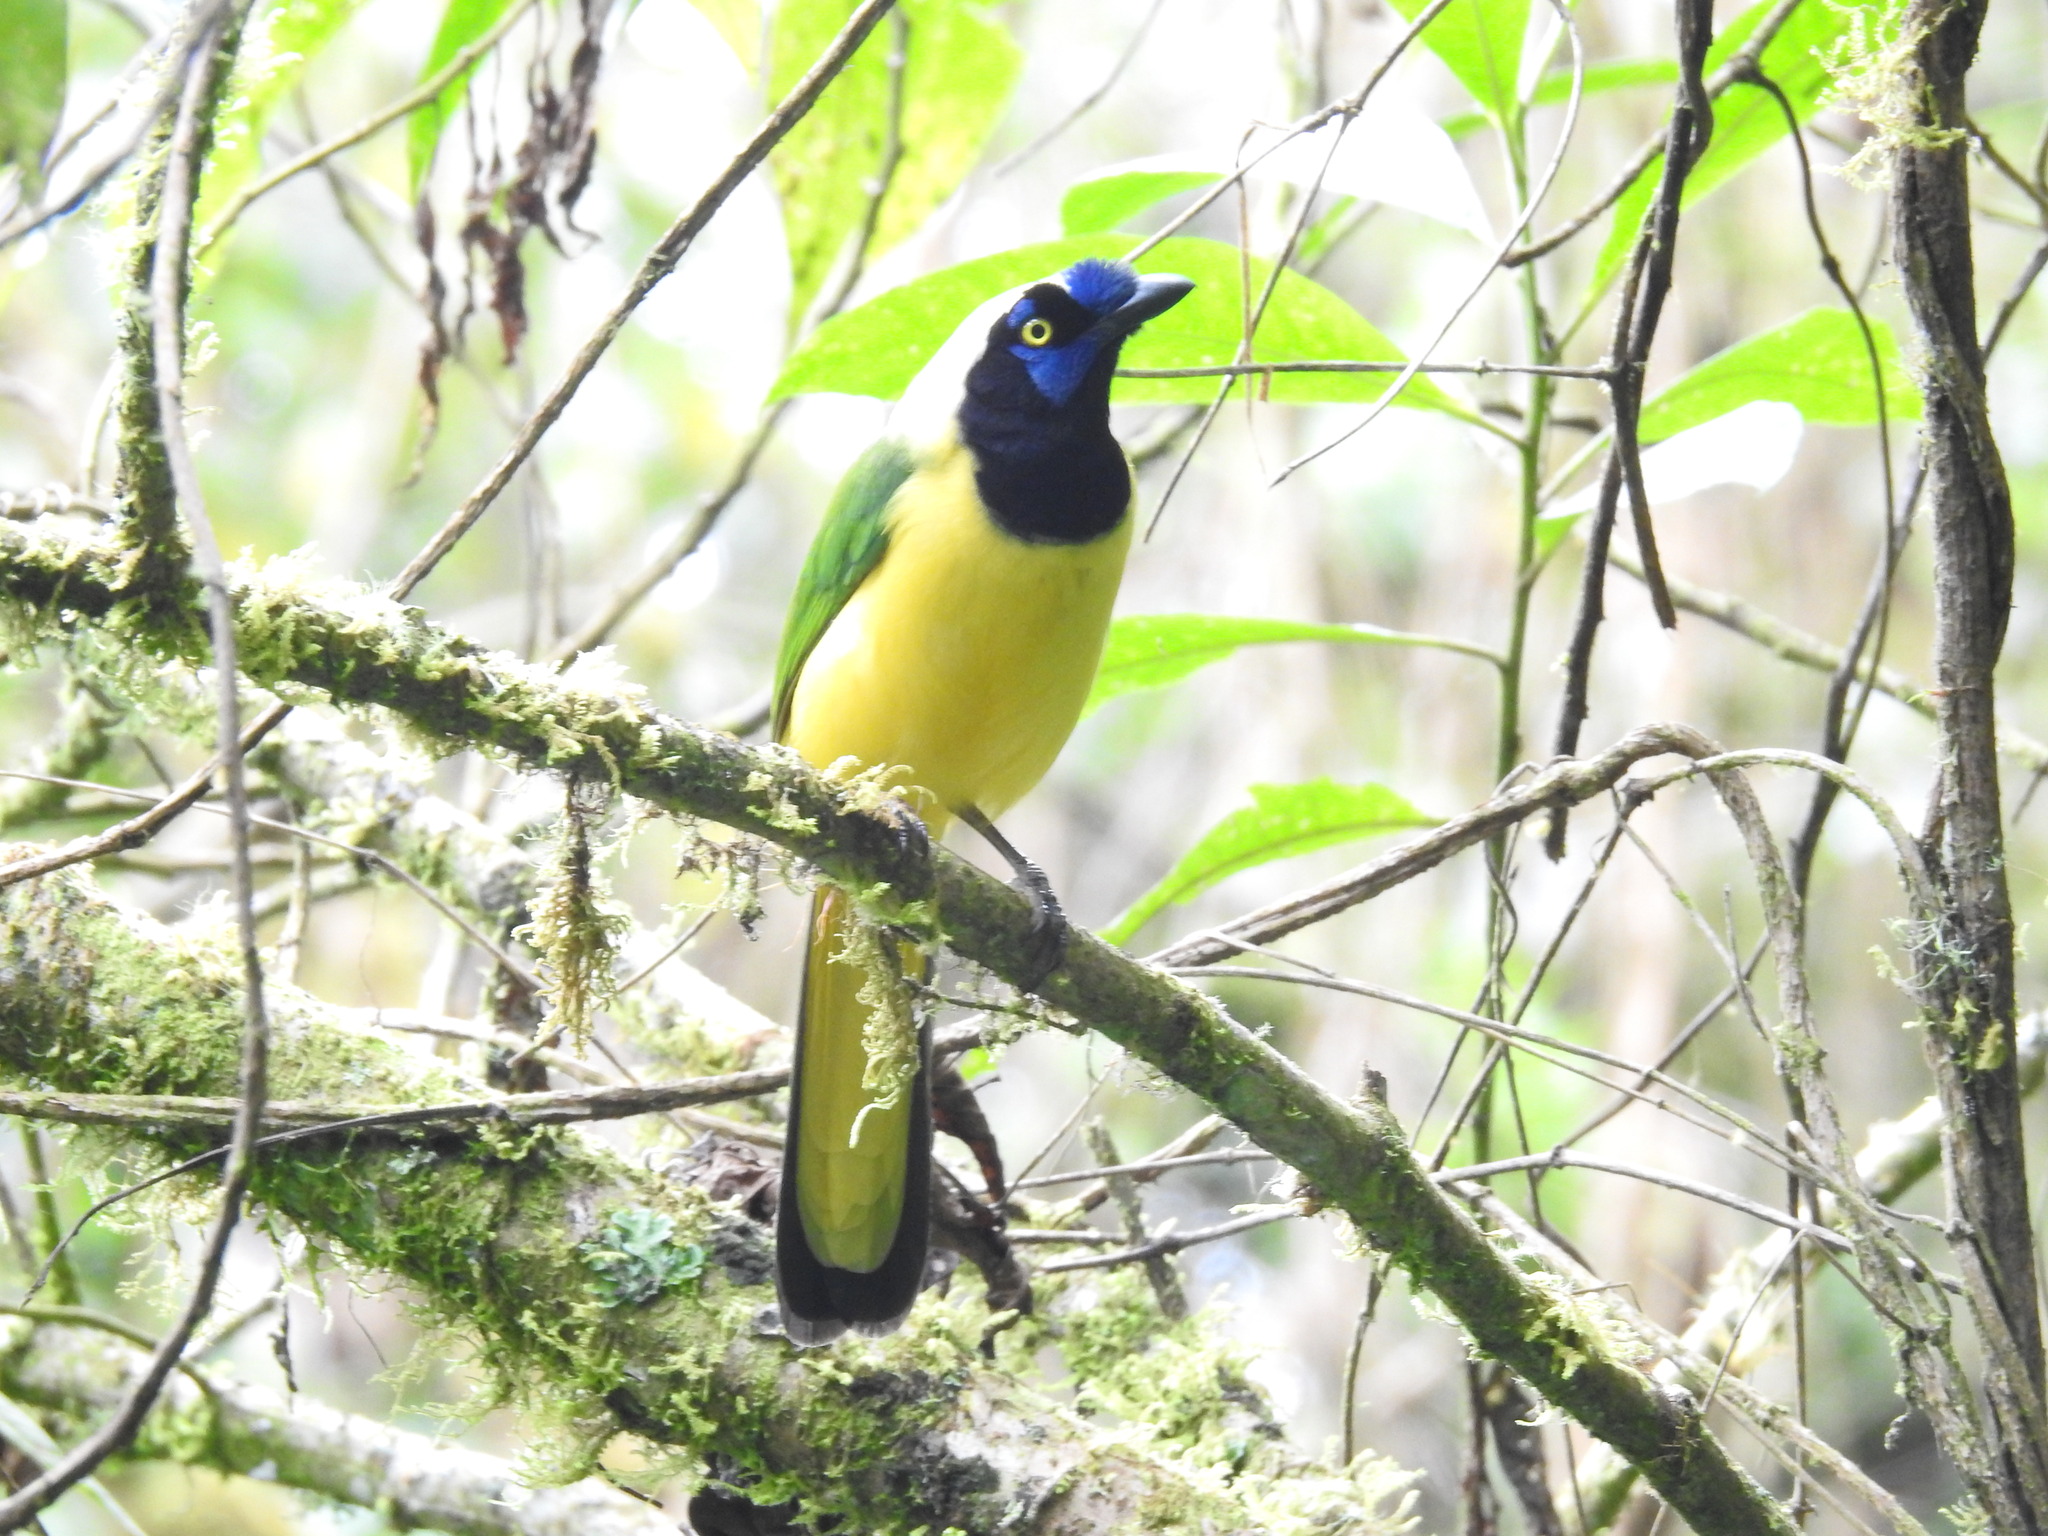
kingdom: Animalia
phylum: Chordata
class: Aves
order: Passeriformes
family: Corvidae
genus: Cyanocorax
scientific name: Cyanocorax yncas
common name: Green jay
